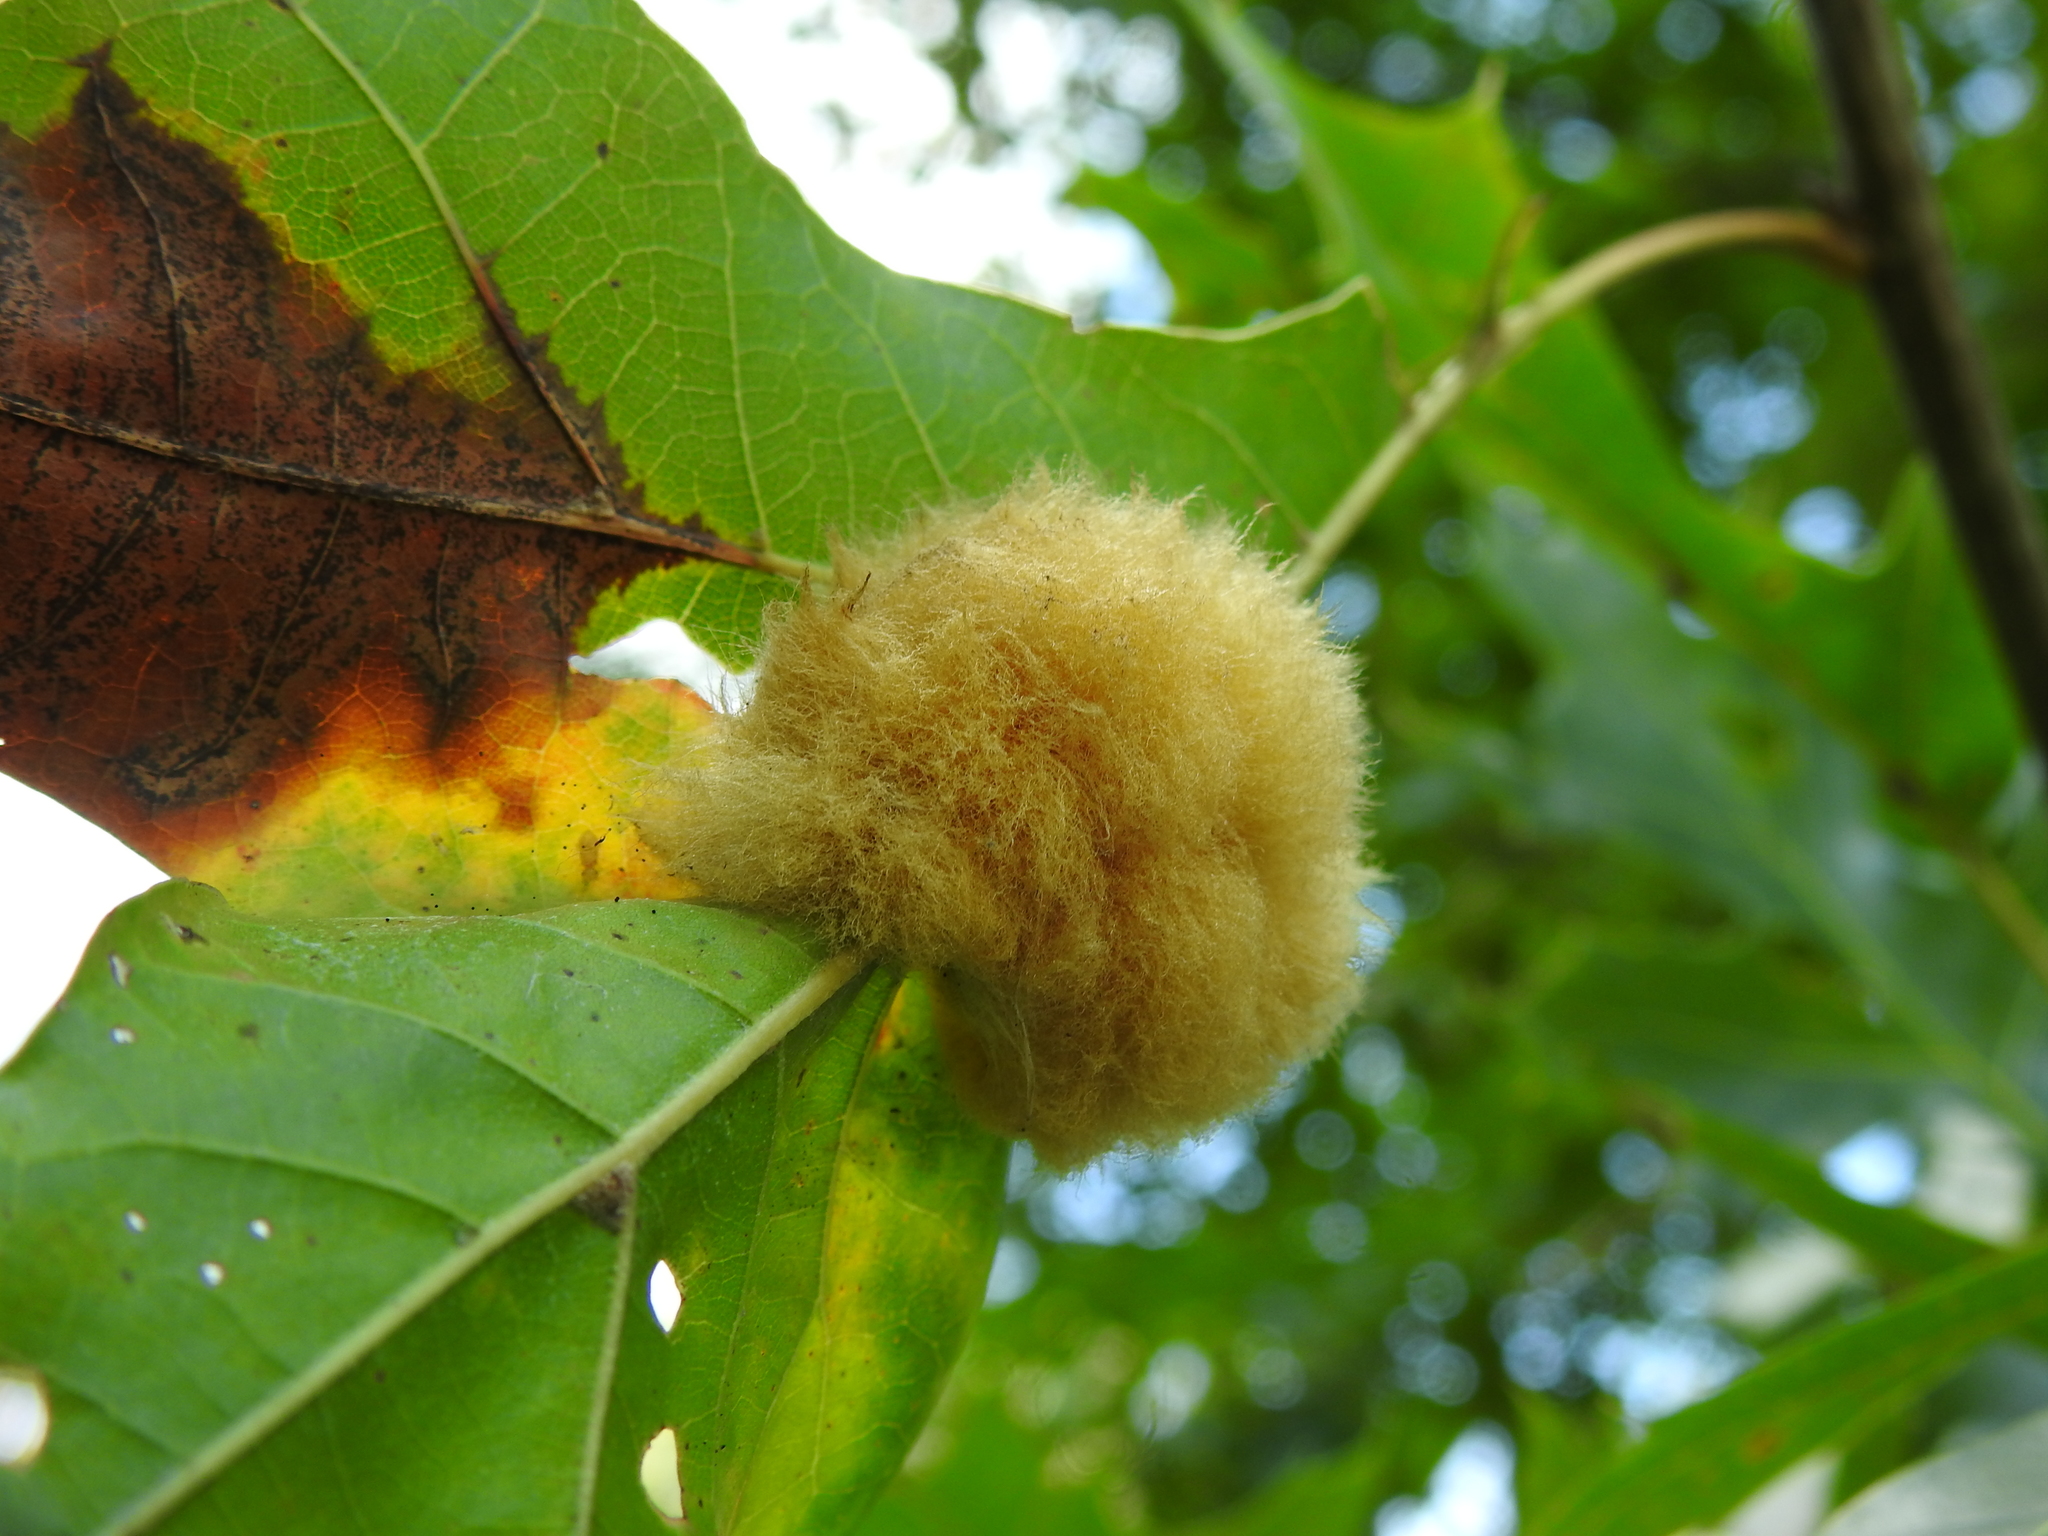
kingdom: Animalia
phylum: Arthropoda
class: Insecta
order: Hymenoptera
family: Cynipidae
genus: Callirhytis
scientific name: Callirhytis
